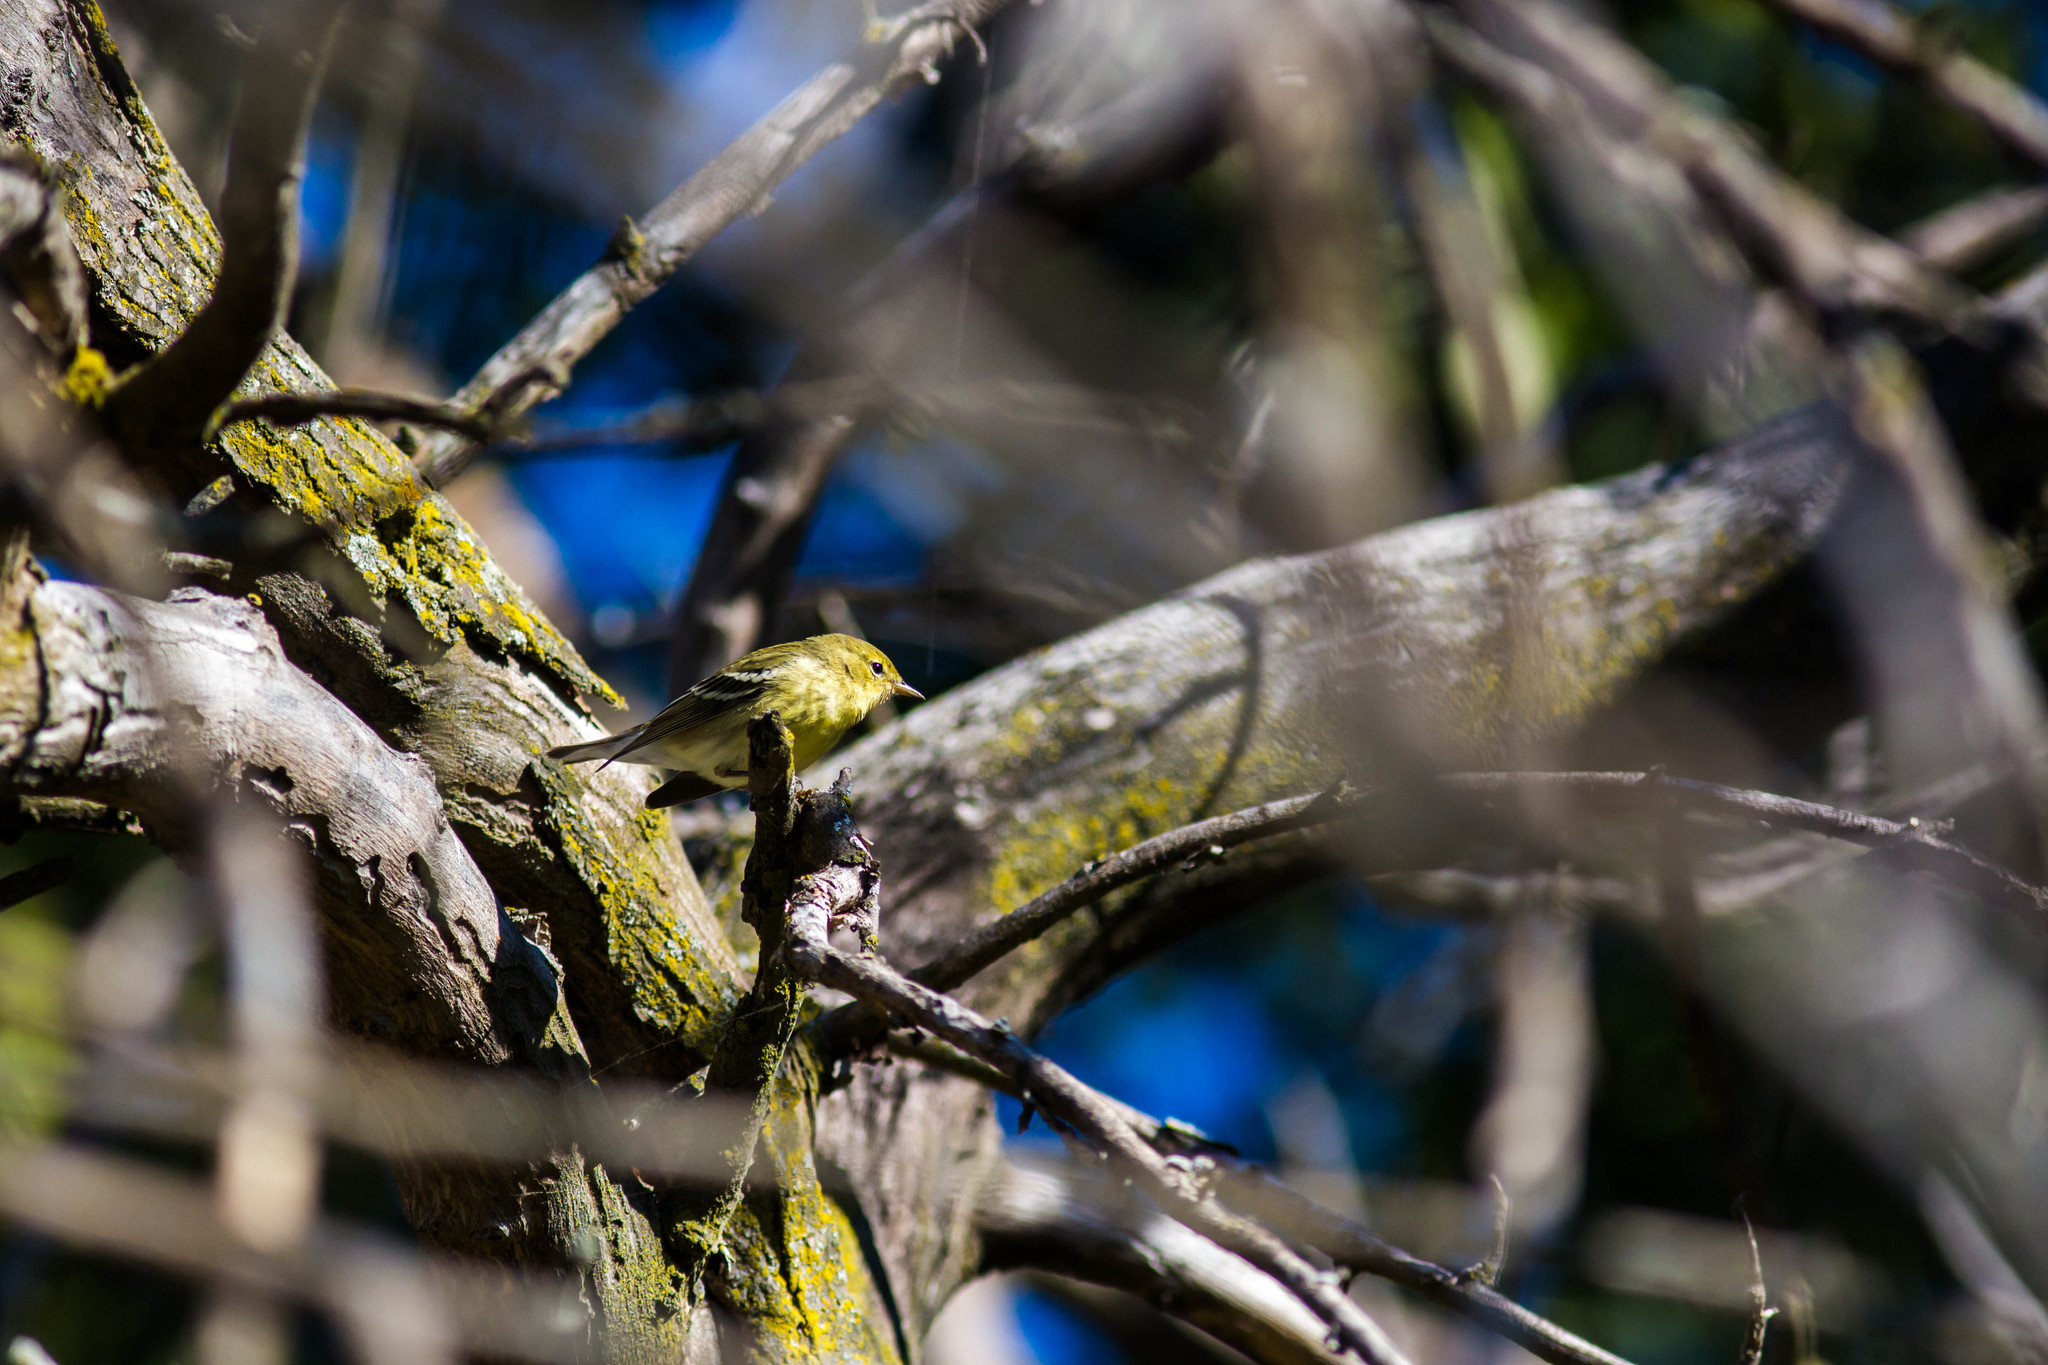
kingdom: Animalia
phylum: Chordata
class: Aves
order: Passeriformes
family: Parulidae
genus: Setophaga
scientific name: Setophaga striata
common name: Blackpoll warbler
